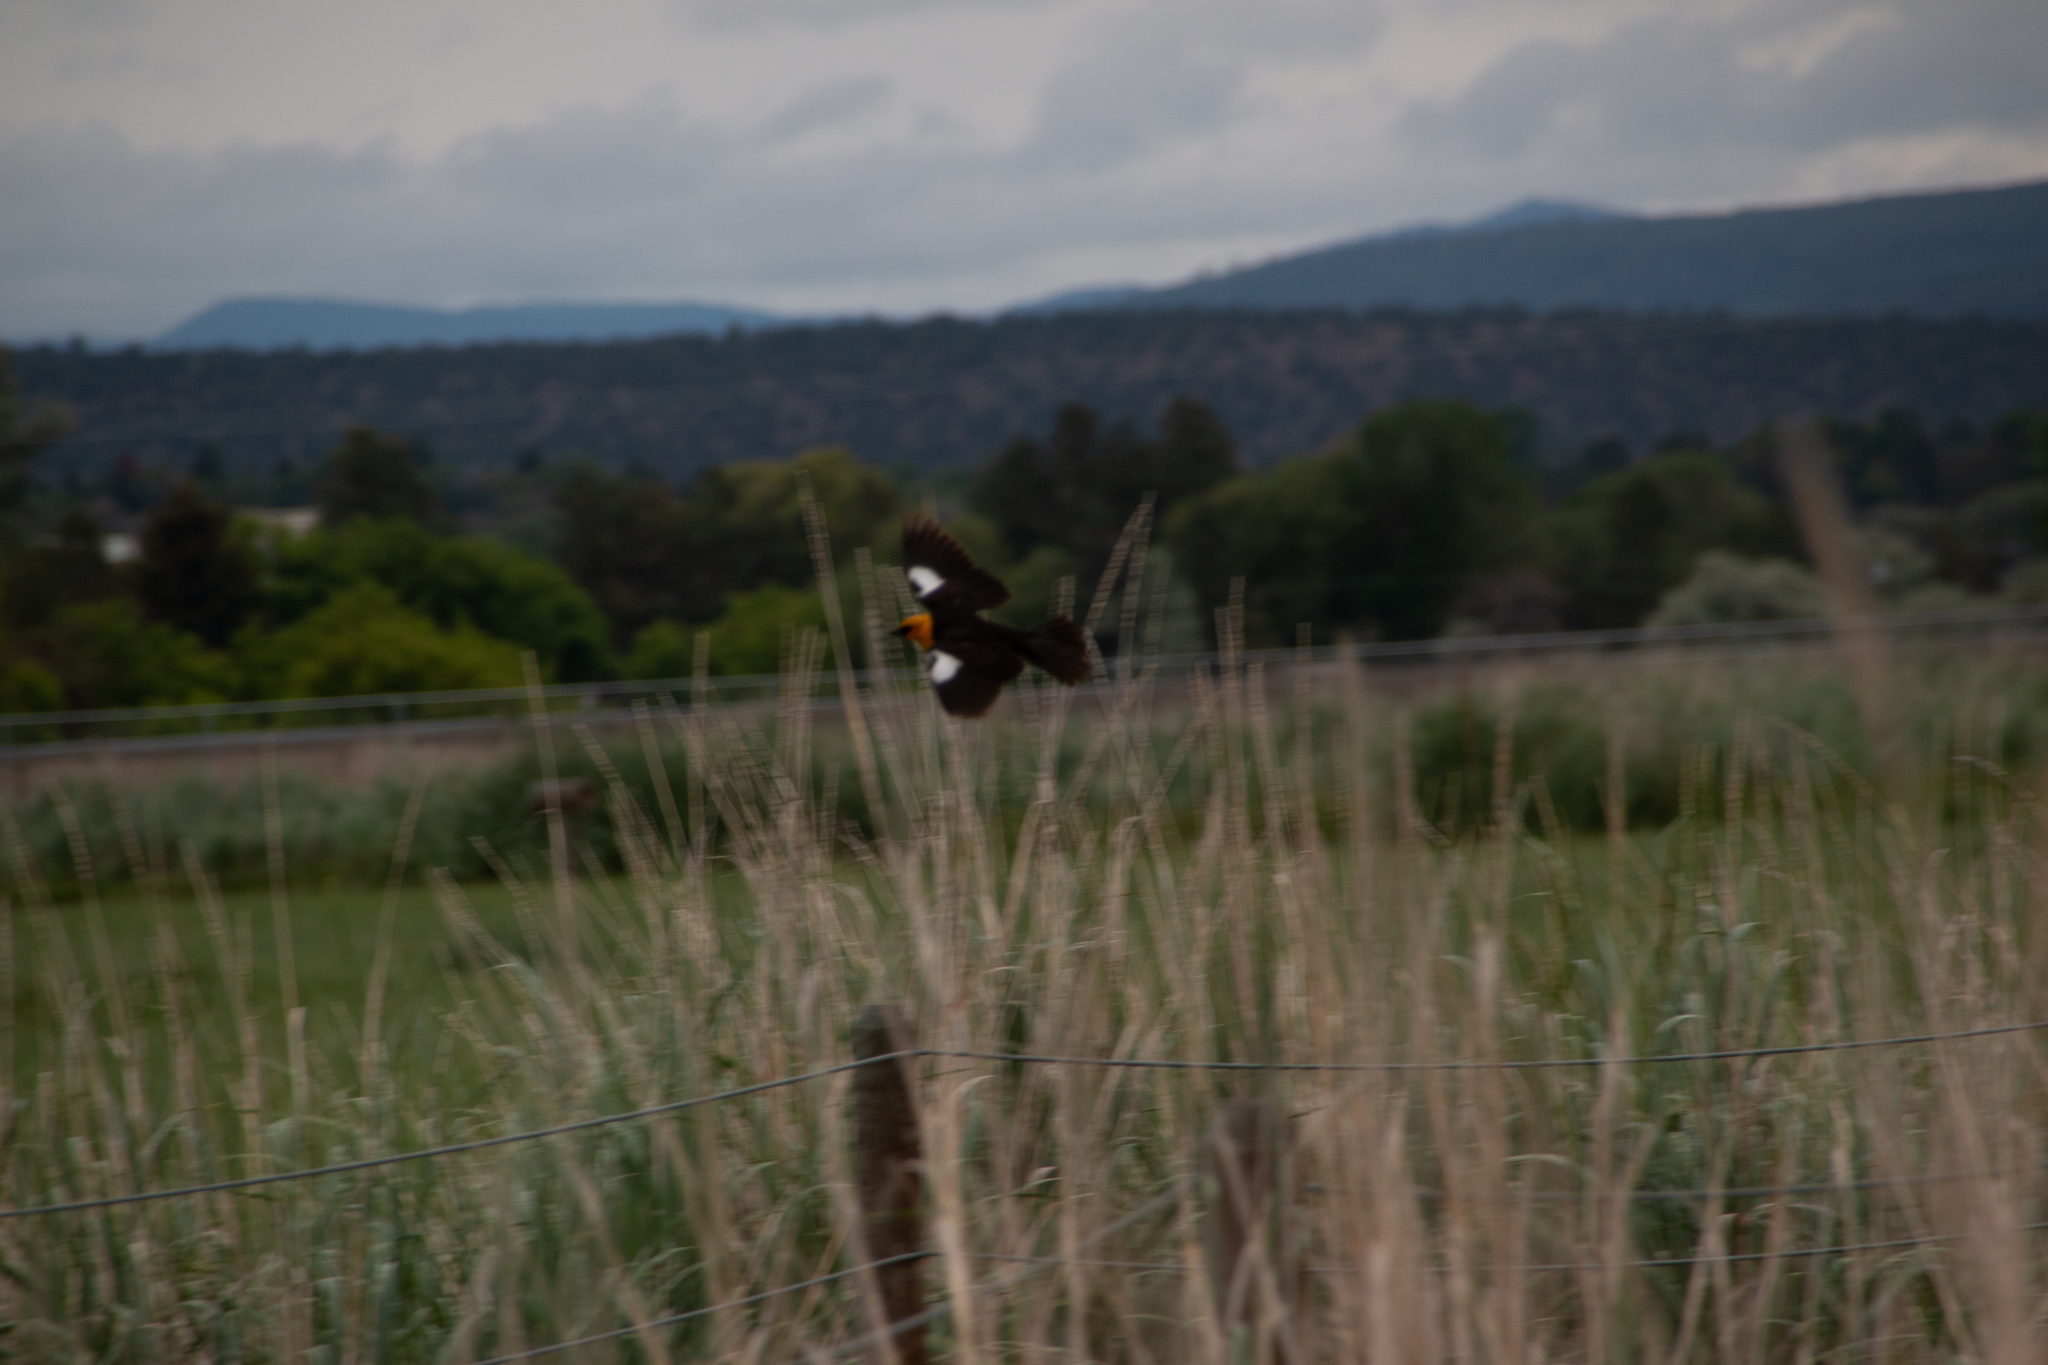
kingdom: Animalia
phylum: Chordata
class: Aves
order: Passeriformes
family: Icteridae
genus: Xanthocephalus
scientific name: Xanthocephalus xanthocephalus
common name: Yellow-headed blackbird
